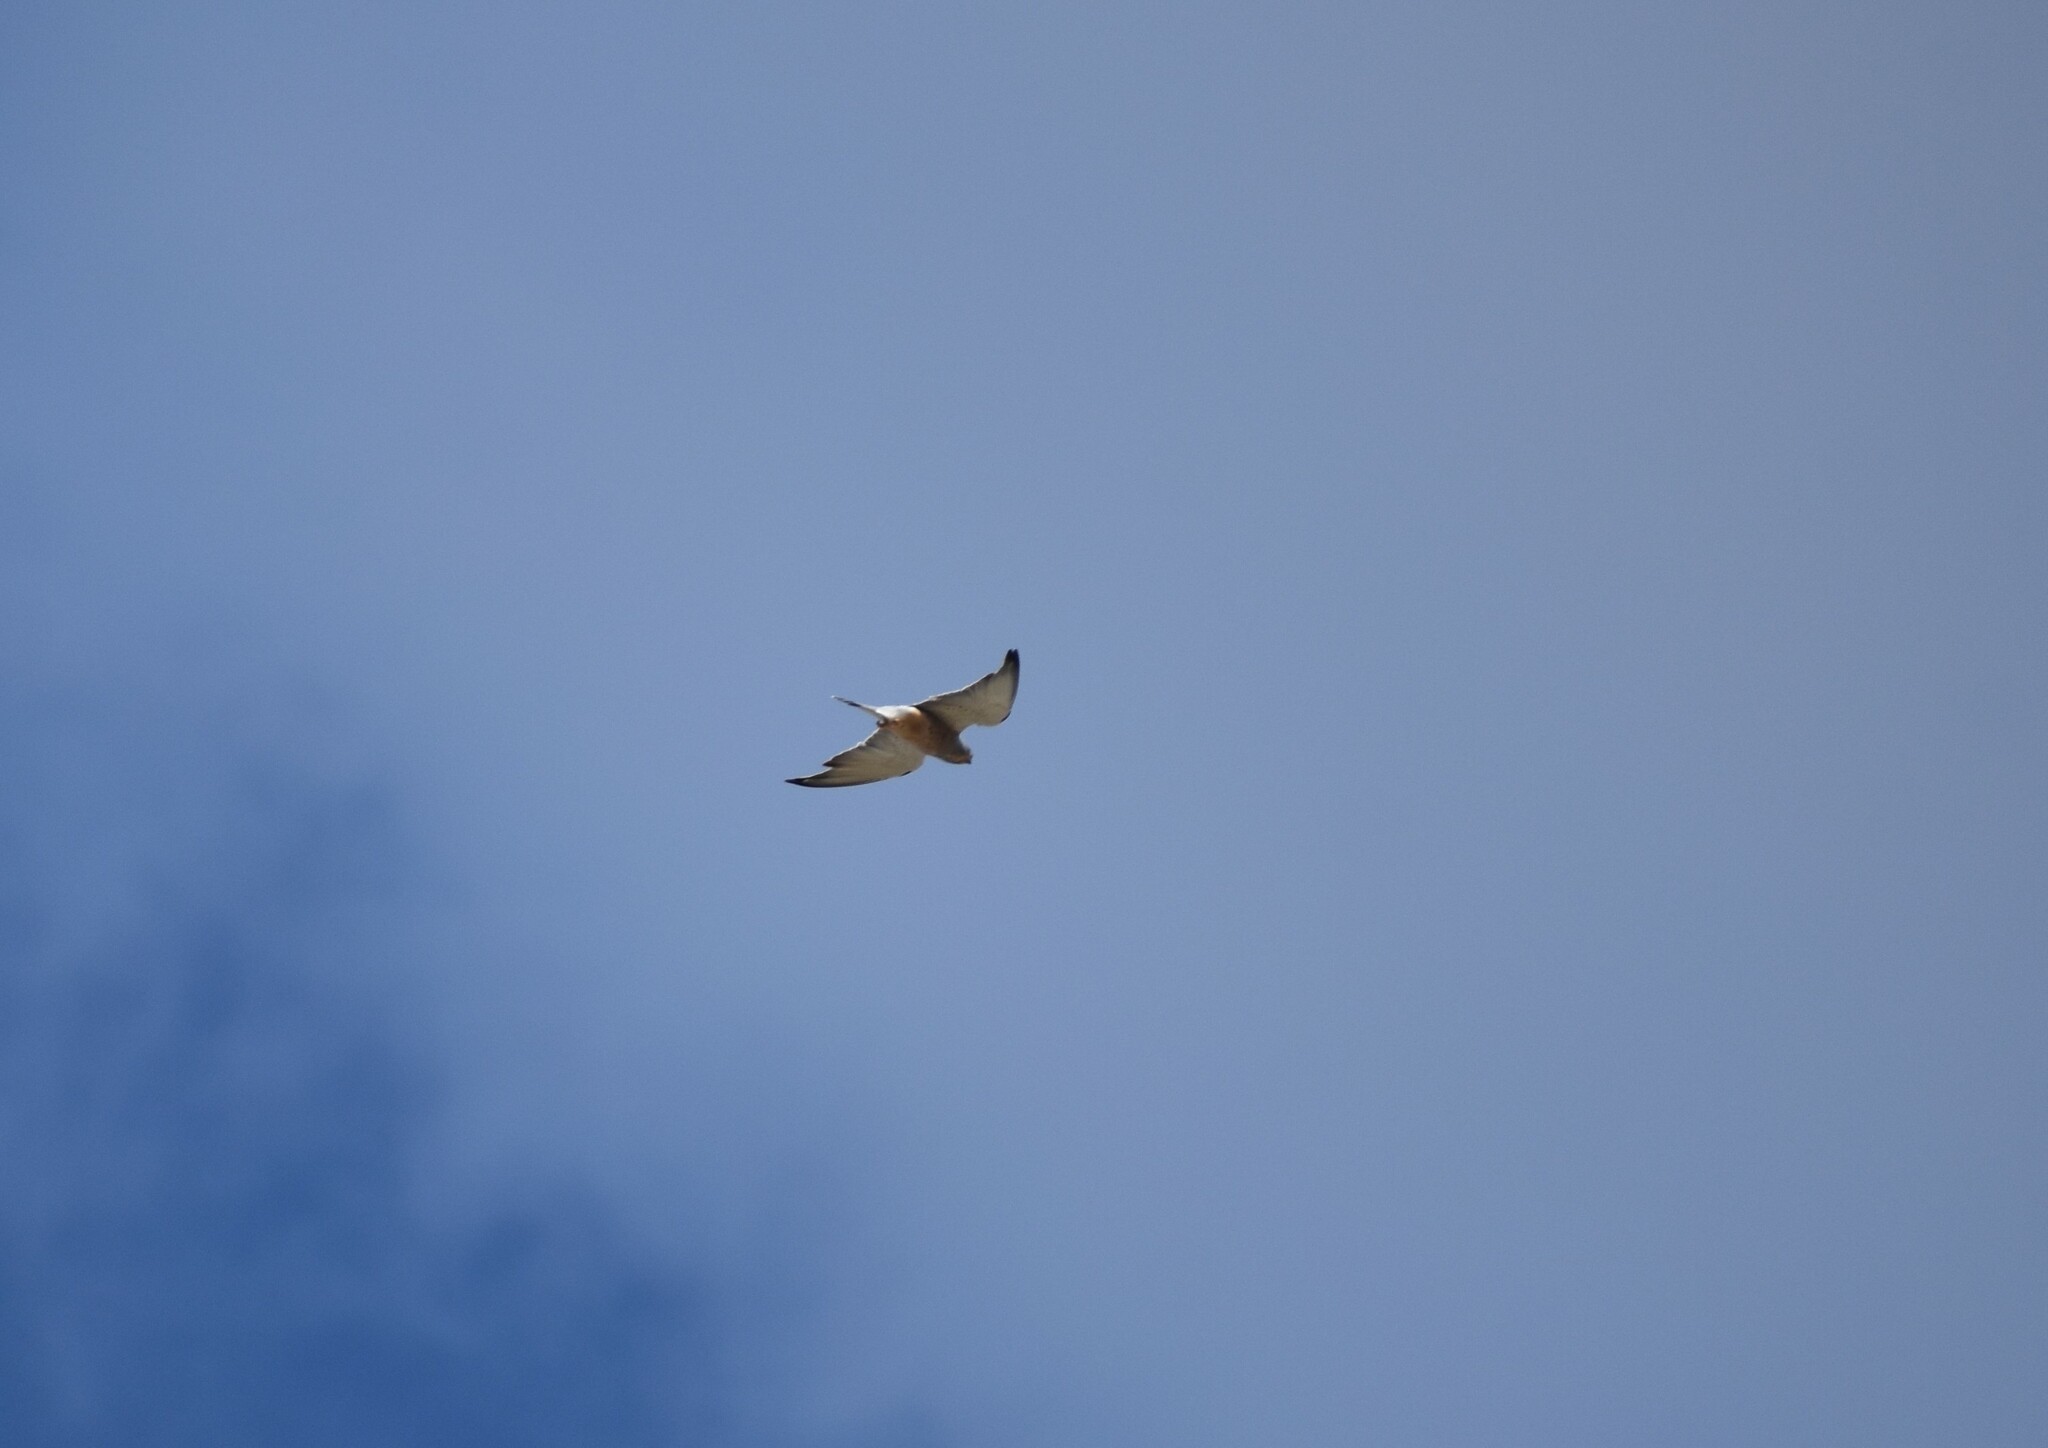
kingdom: Animalia
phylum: Chordata
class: Aves
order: Falconiformes
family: Falconidae
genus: Falco
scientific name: Falco naumanni
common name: Lesser kestrel
